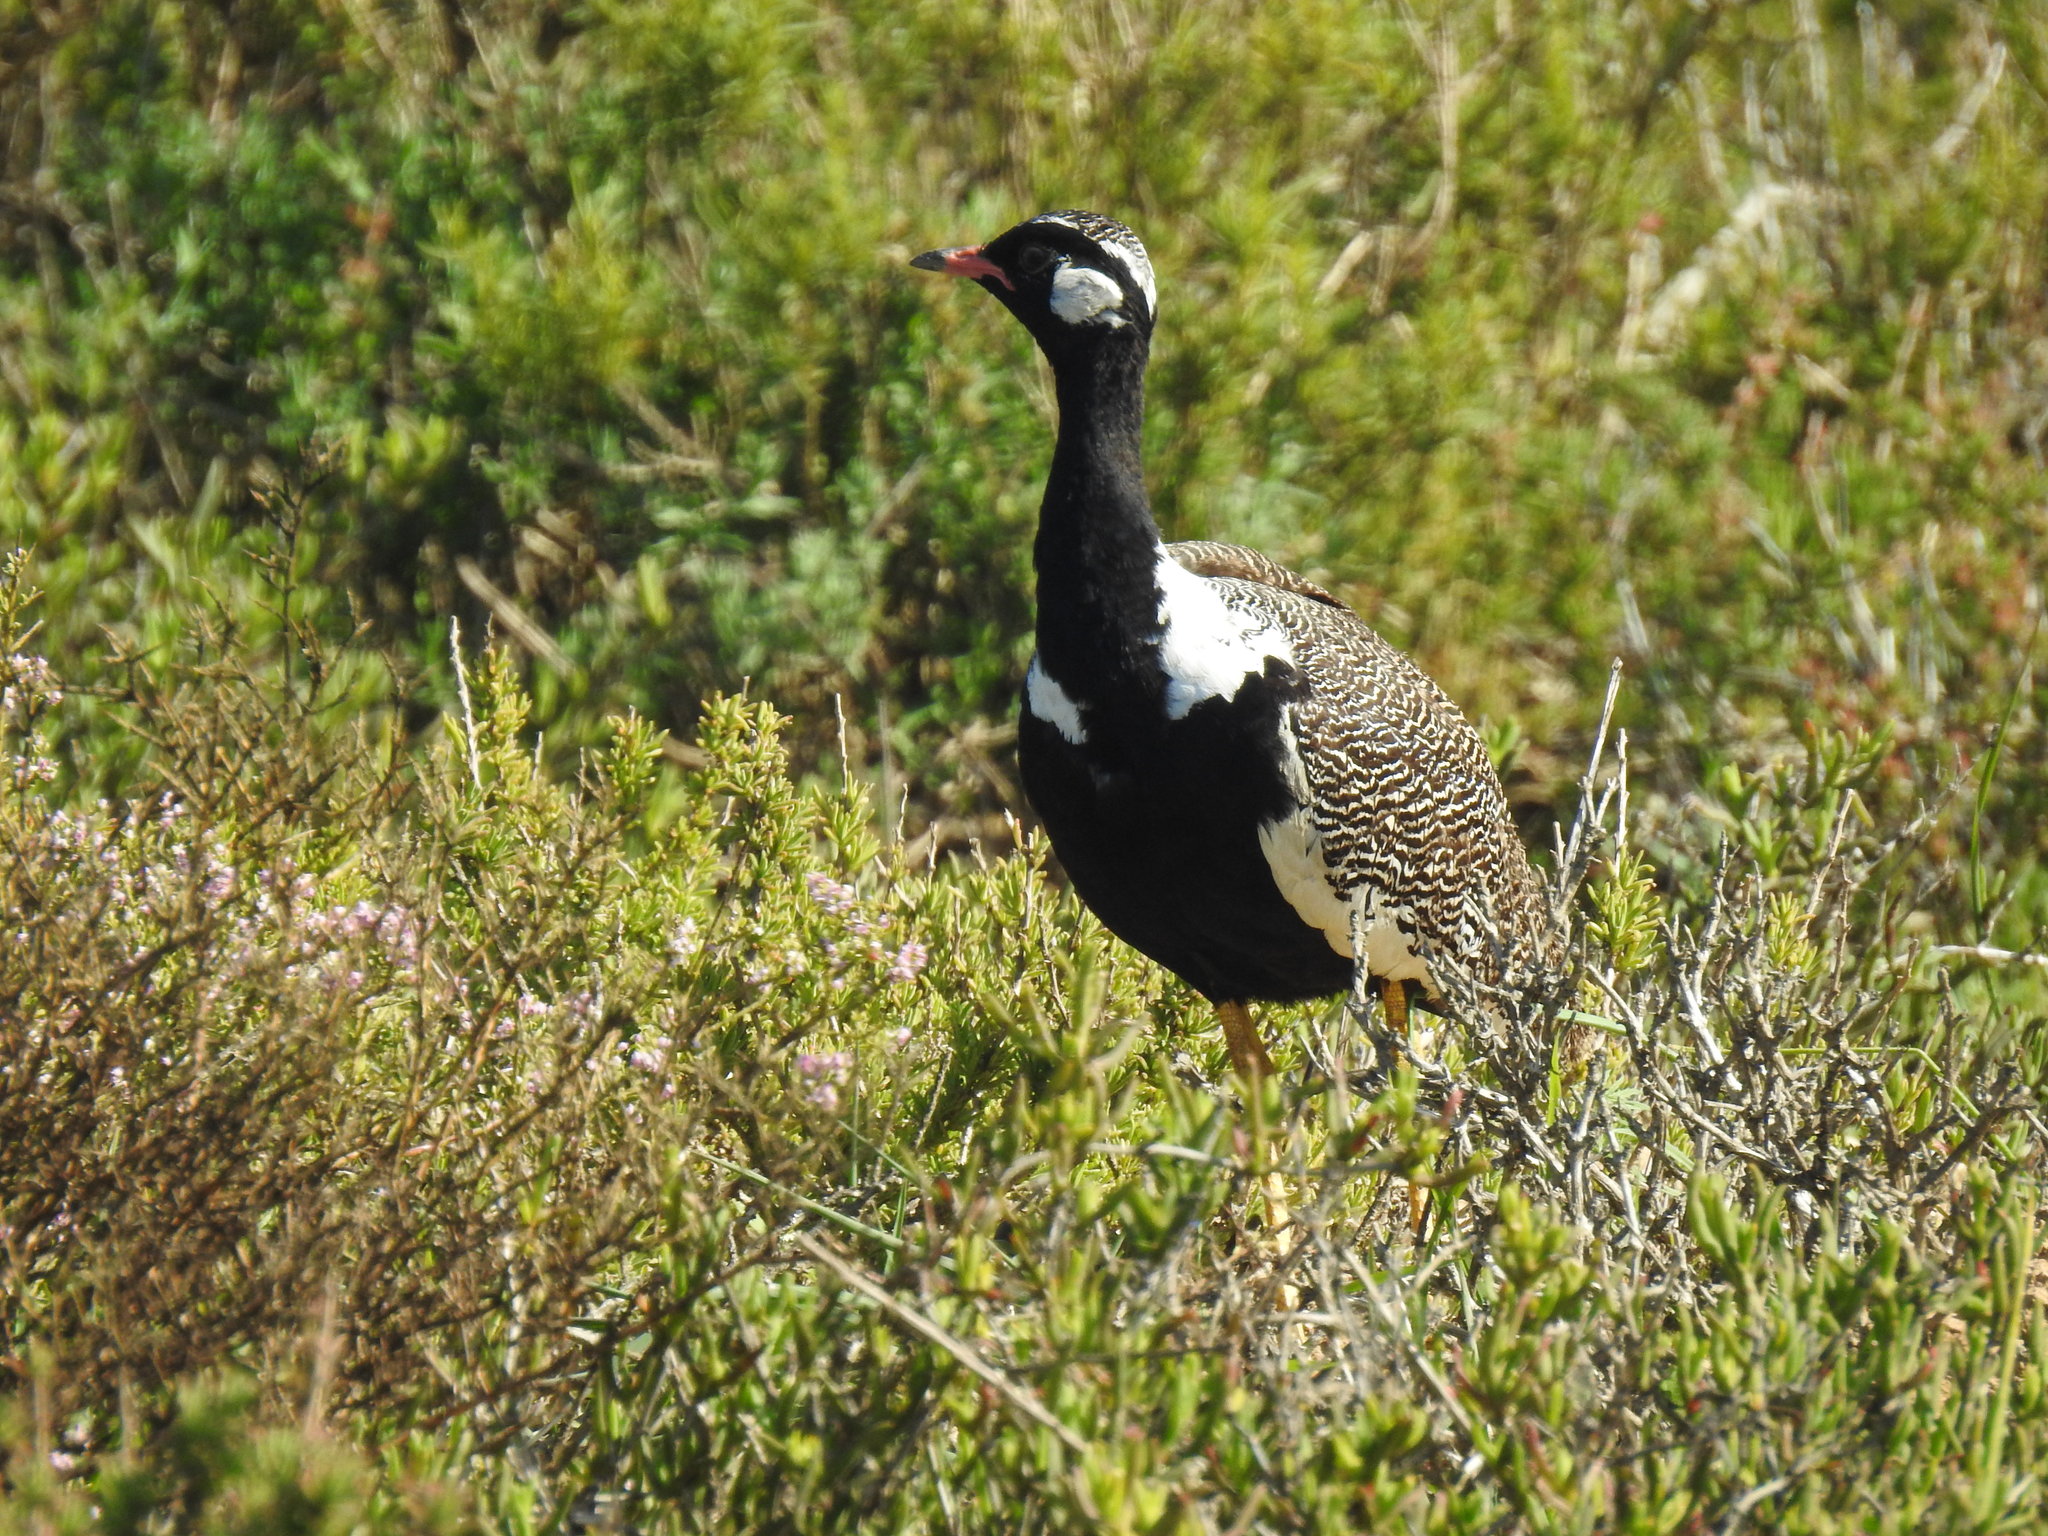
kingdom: Animalia
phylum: Chordata
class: Aves
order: Otidiformes
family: Otididae
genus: Afrotis
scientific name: Afrotis afra
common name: Southern black korhaan
